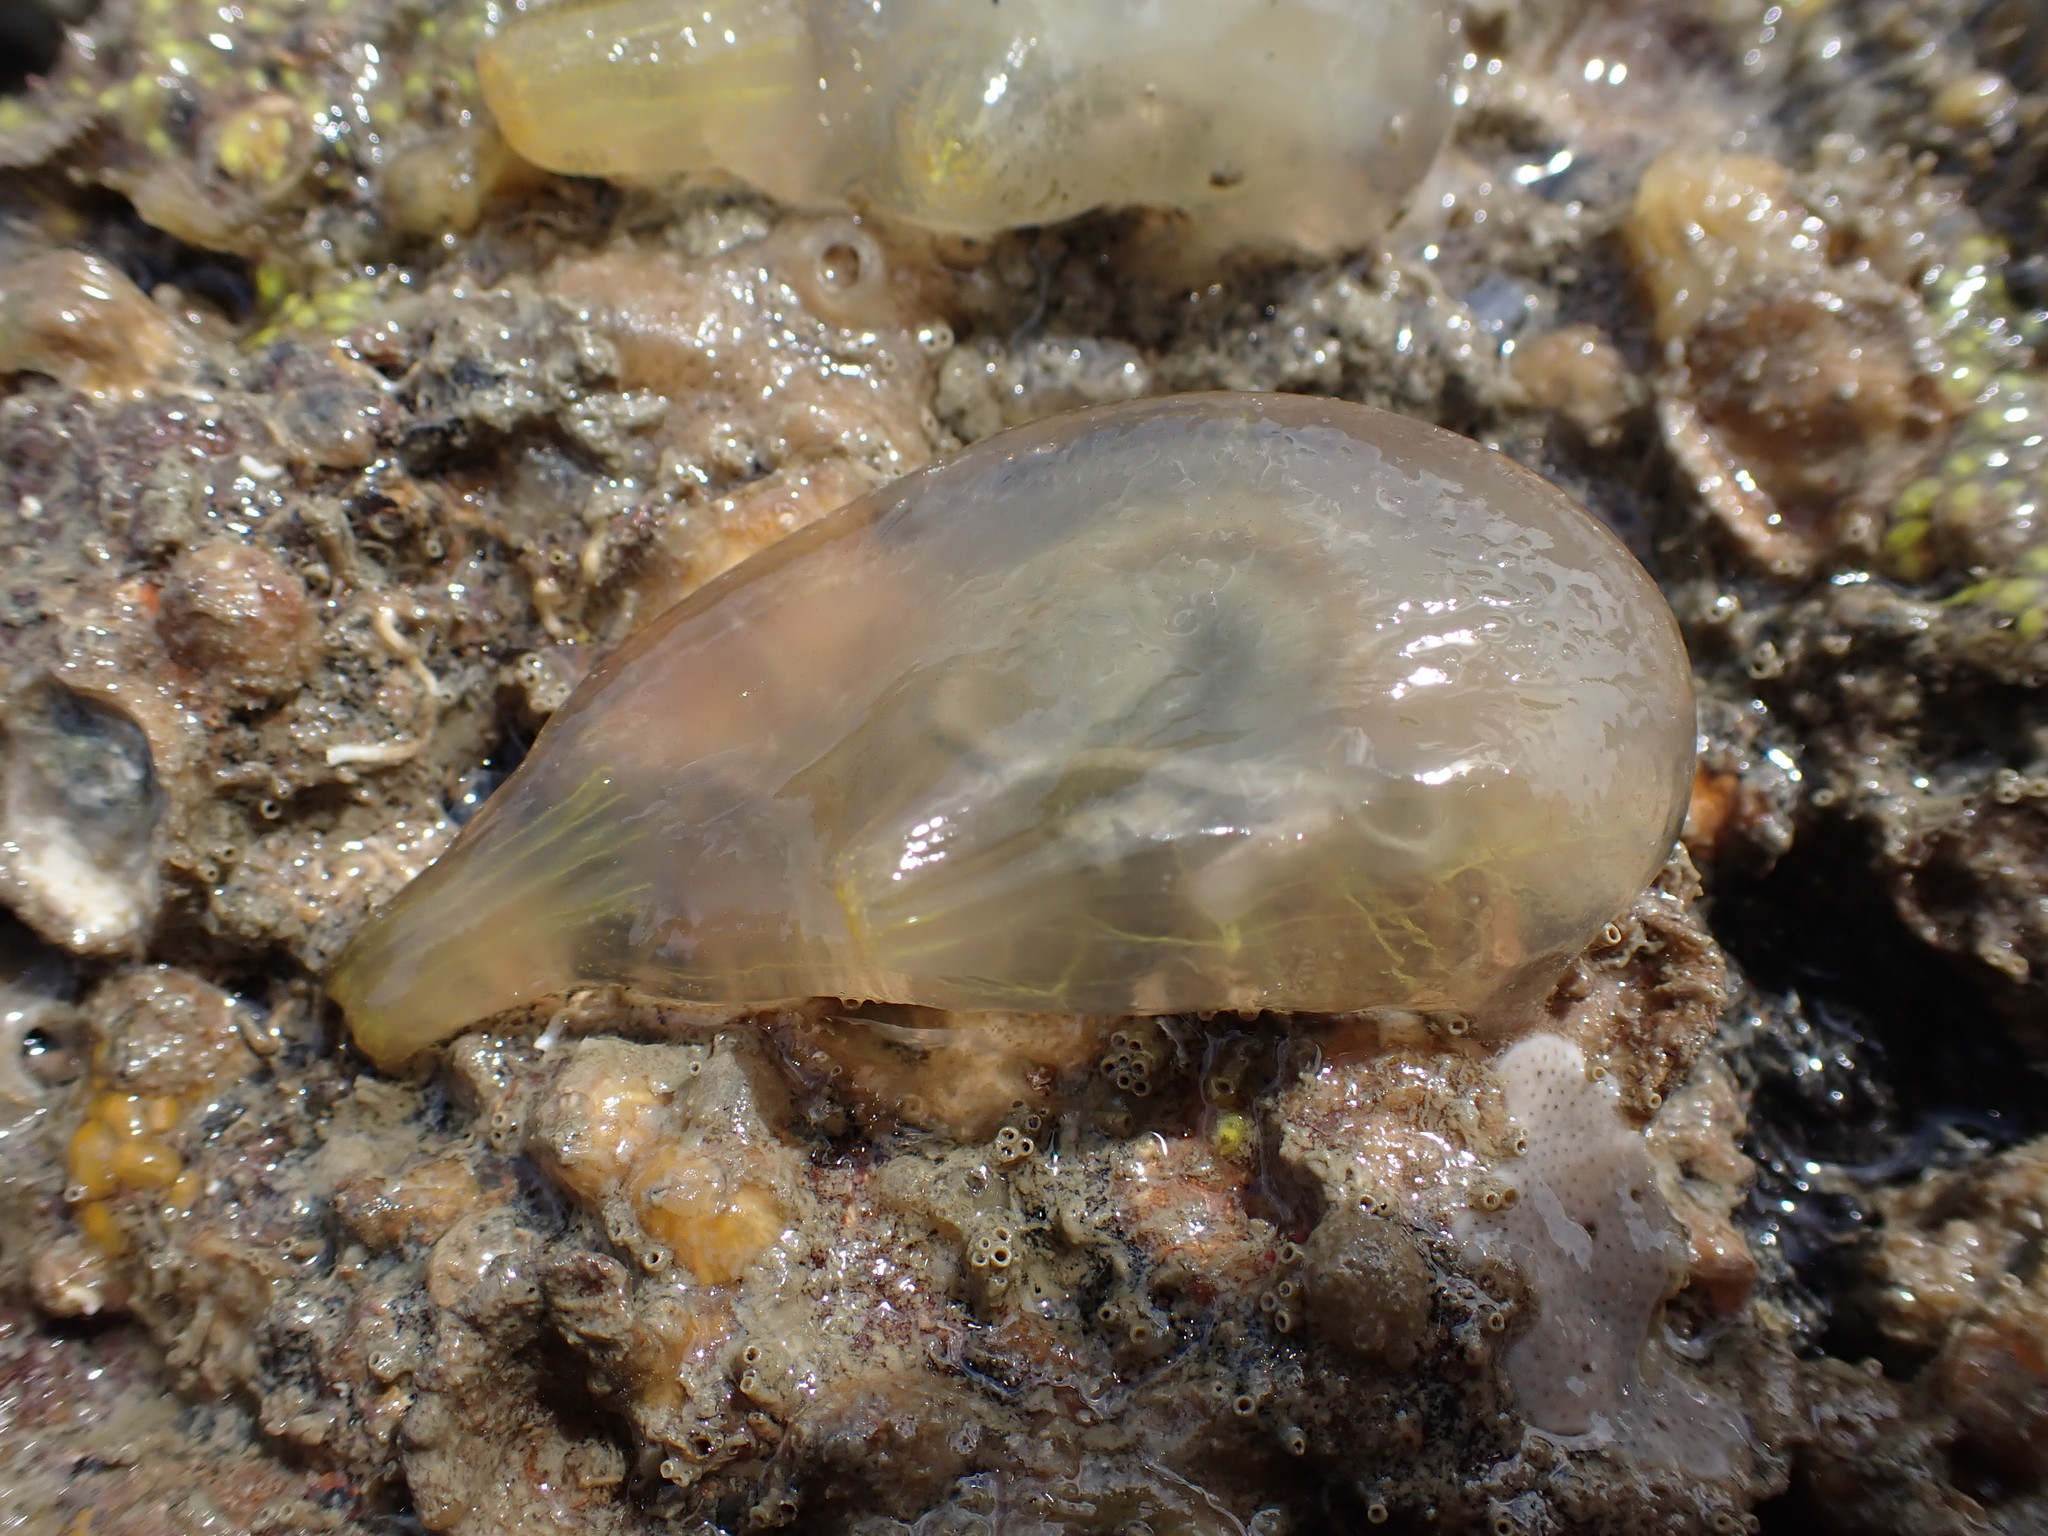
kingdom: Animalia
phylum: Chordata
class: Ascidiacea
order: Phlebobranchia
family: Cionidae
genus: Ciona
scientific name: Ciona savignyi
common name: Tunicate
